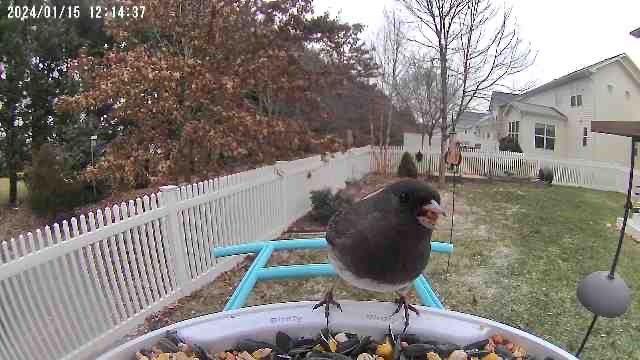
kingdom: Animalia
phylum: Chordata
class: Aves
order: Passeriformes
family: Passerellidae
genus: Junco
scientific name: Junco hyemalis
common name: Dark-eyed junco
